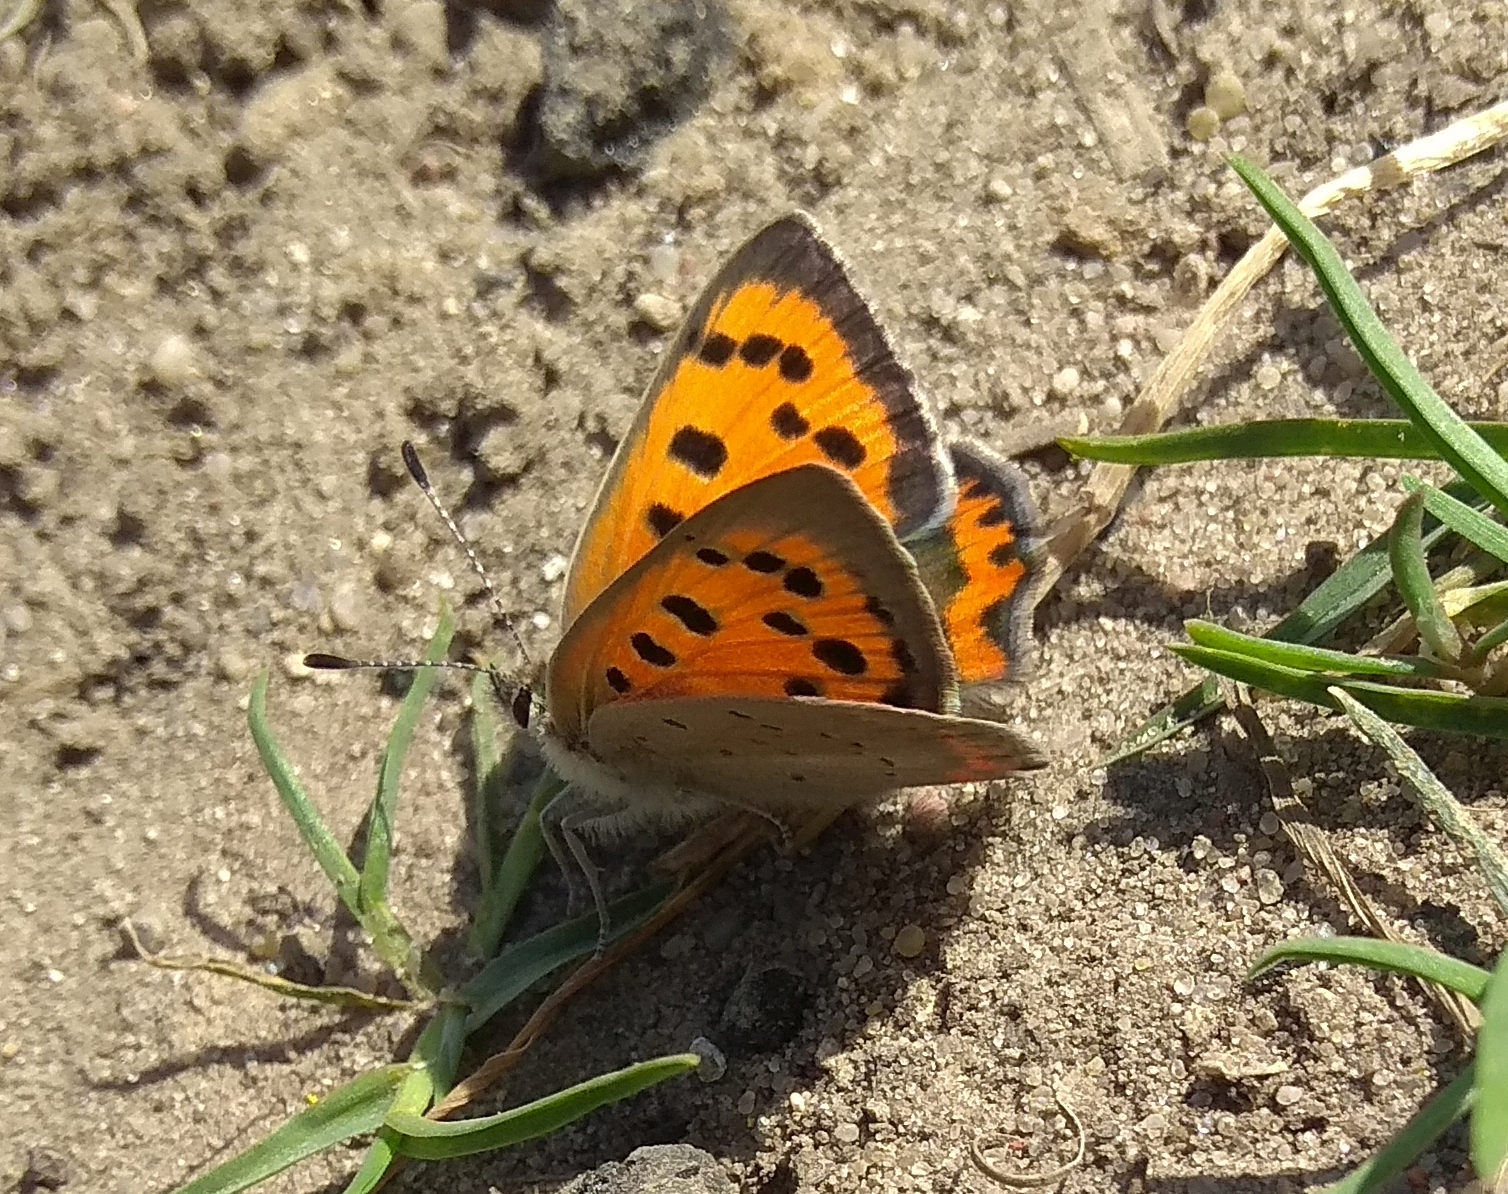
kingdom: Animalia
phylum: Arthropoda
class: Insecta
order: Lepidoptera
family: Lycaenidae
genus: Lycaena
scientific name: Lycaena phlaeas
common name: Small copper
